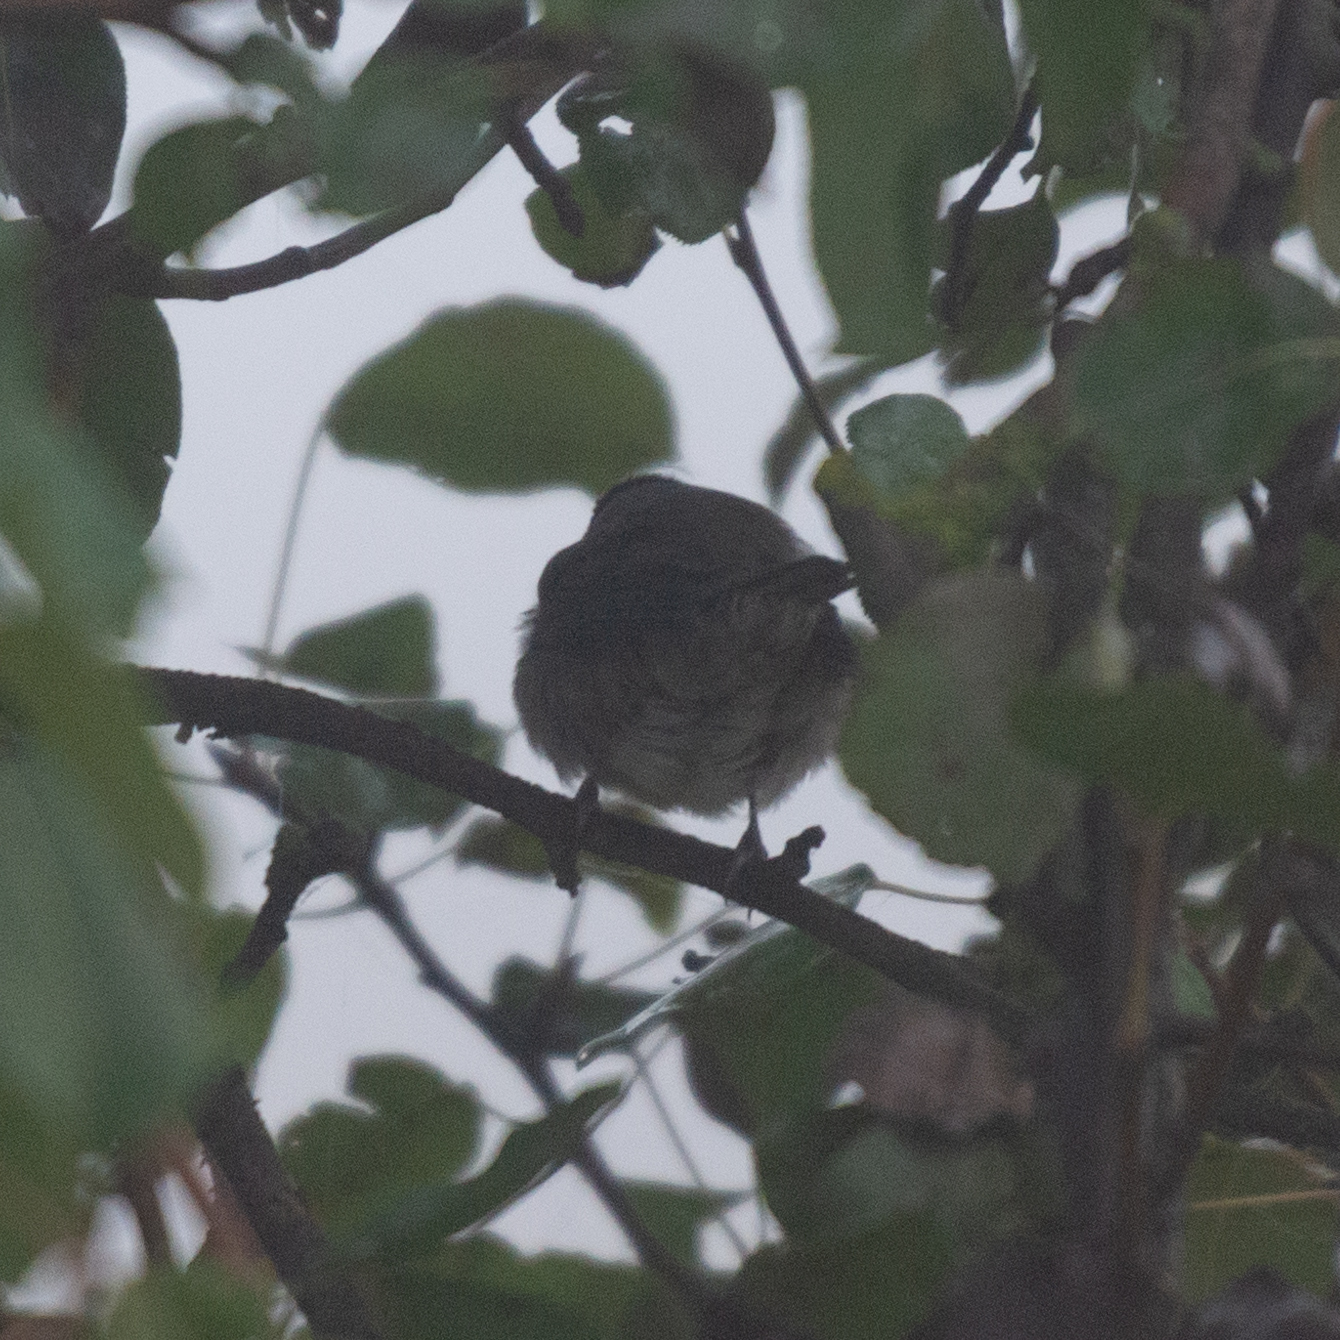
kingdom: Animalia
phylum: Chordata
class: Aves
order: Passeriformes
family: Sylviidae
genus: Sylvia
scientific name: Sylvia atricapilla
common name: Eurasian blackcap
